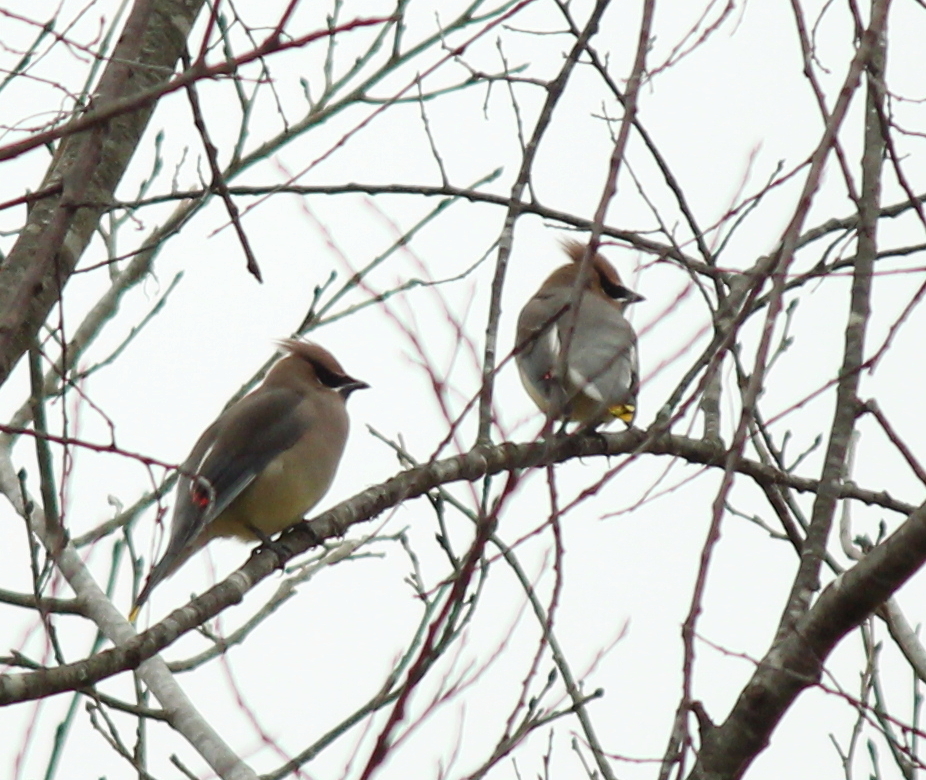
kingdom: Animalia
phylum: Chordata
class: Aves
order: Passeriformes
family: Bombycillidae
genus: Bombycilla
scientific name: Bombycilla cedrorum
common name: Cedar waxwing
